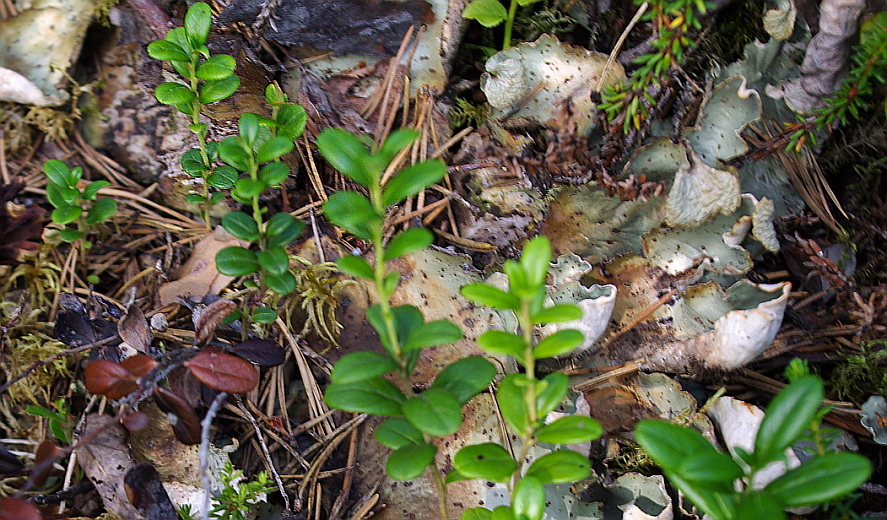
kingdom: Plantae
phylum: Tracheophyta
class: Magnoliopsida
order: Ericales
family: Ericaceae
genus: Vaccinium
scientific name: Vaccinium vitis-idaea
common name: Cowberry
